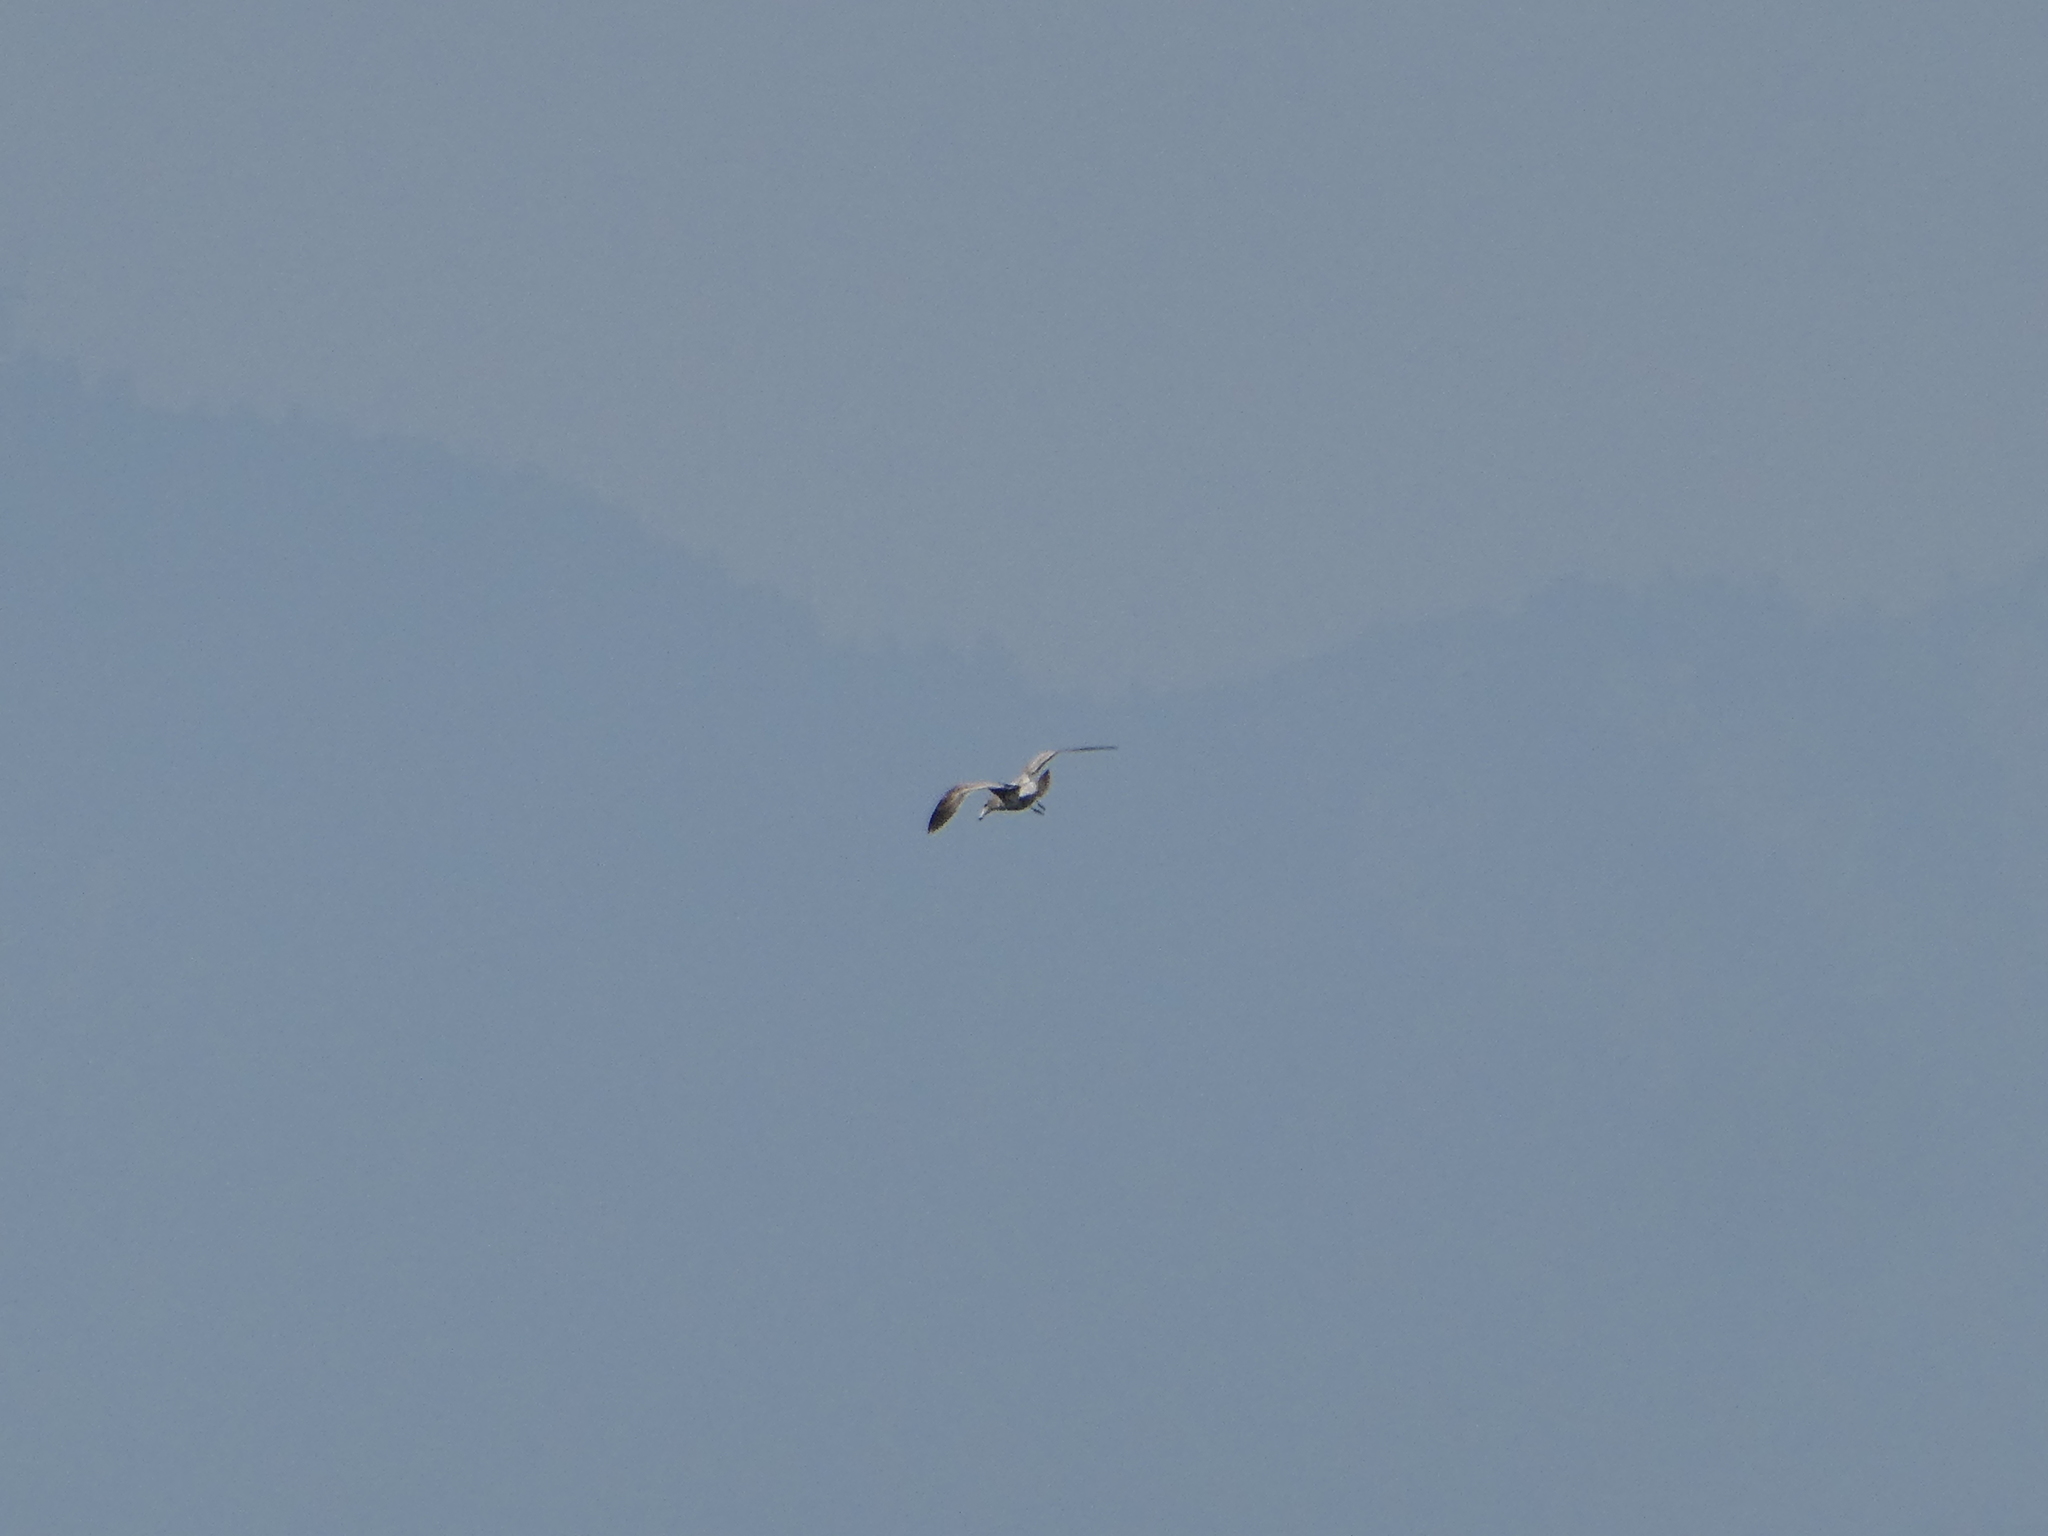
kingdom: Animalia
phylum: Chordata
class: Aves
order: Charadriiformes
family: Laridae
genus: Larus
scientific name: Larus californicus
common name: California gull
